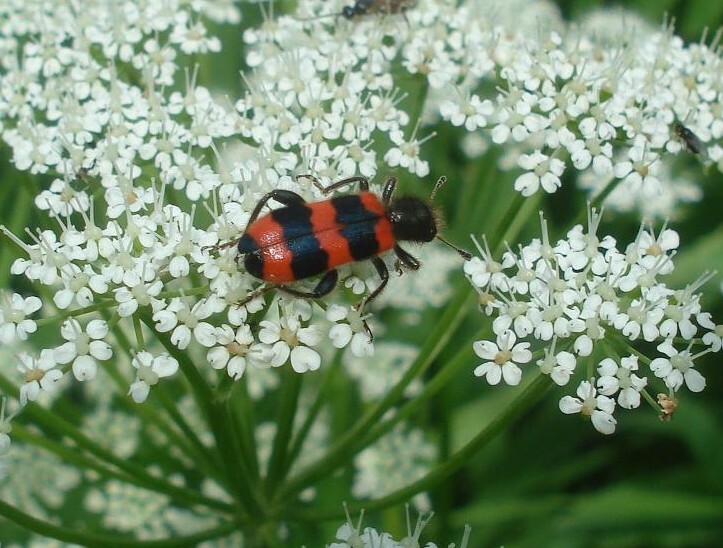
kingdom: Animalia
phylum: Arthropoda
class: Insecta
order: Coleoptera
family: Cleridae
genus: Trichodes
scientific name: Trichodes apiarius
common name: Bee-eating beetle
